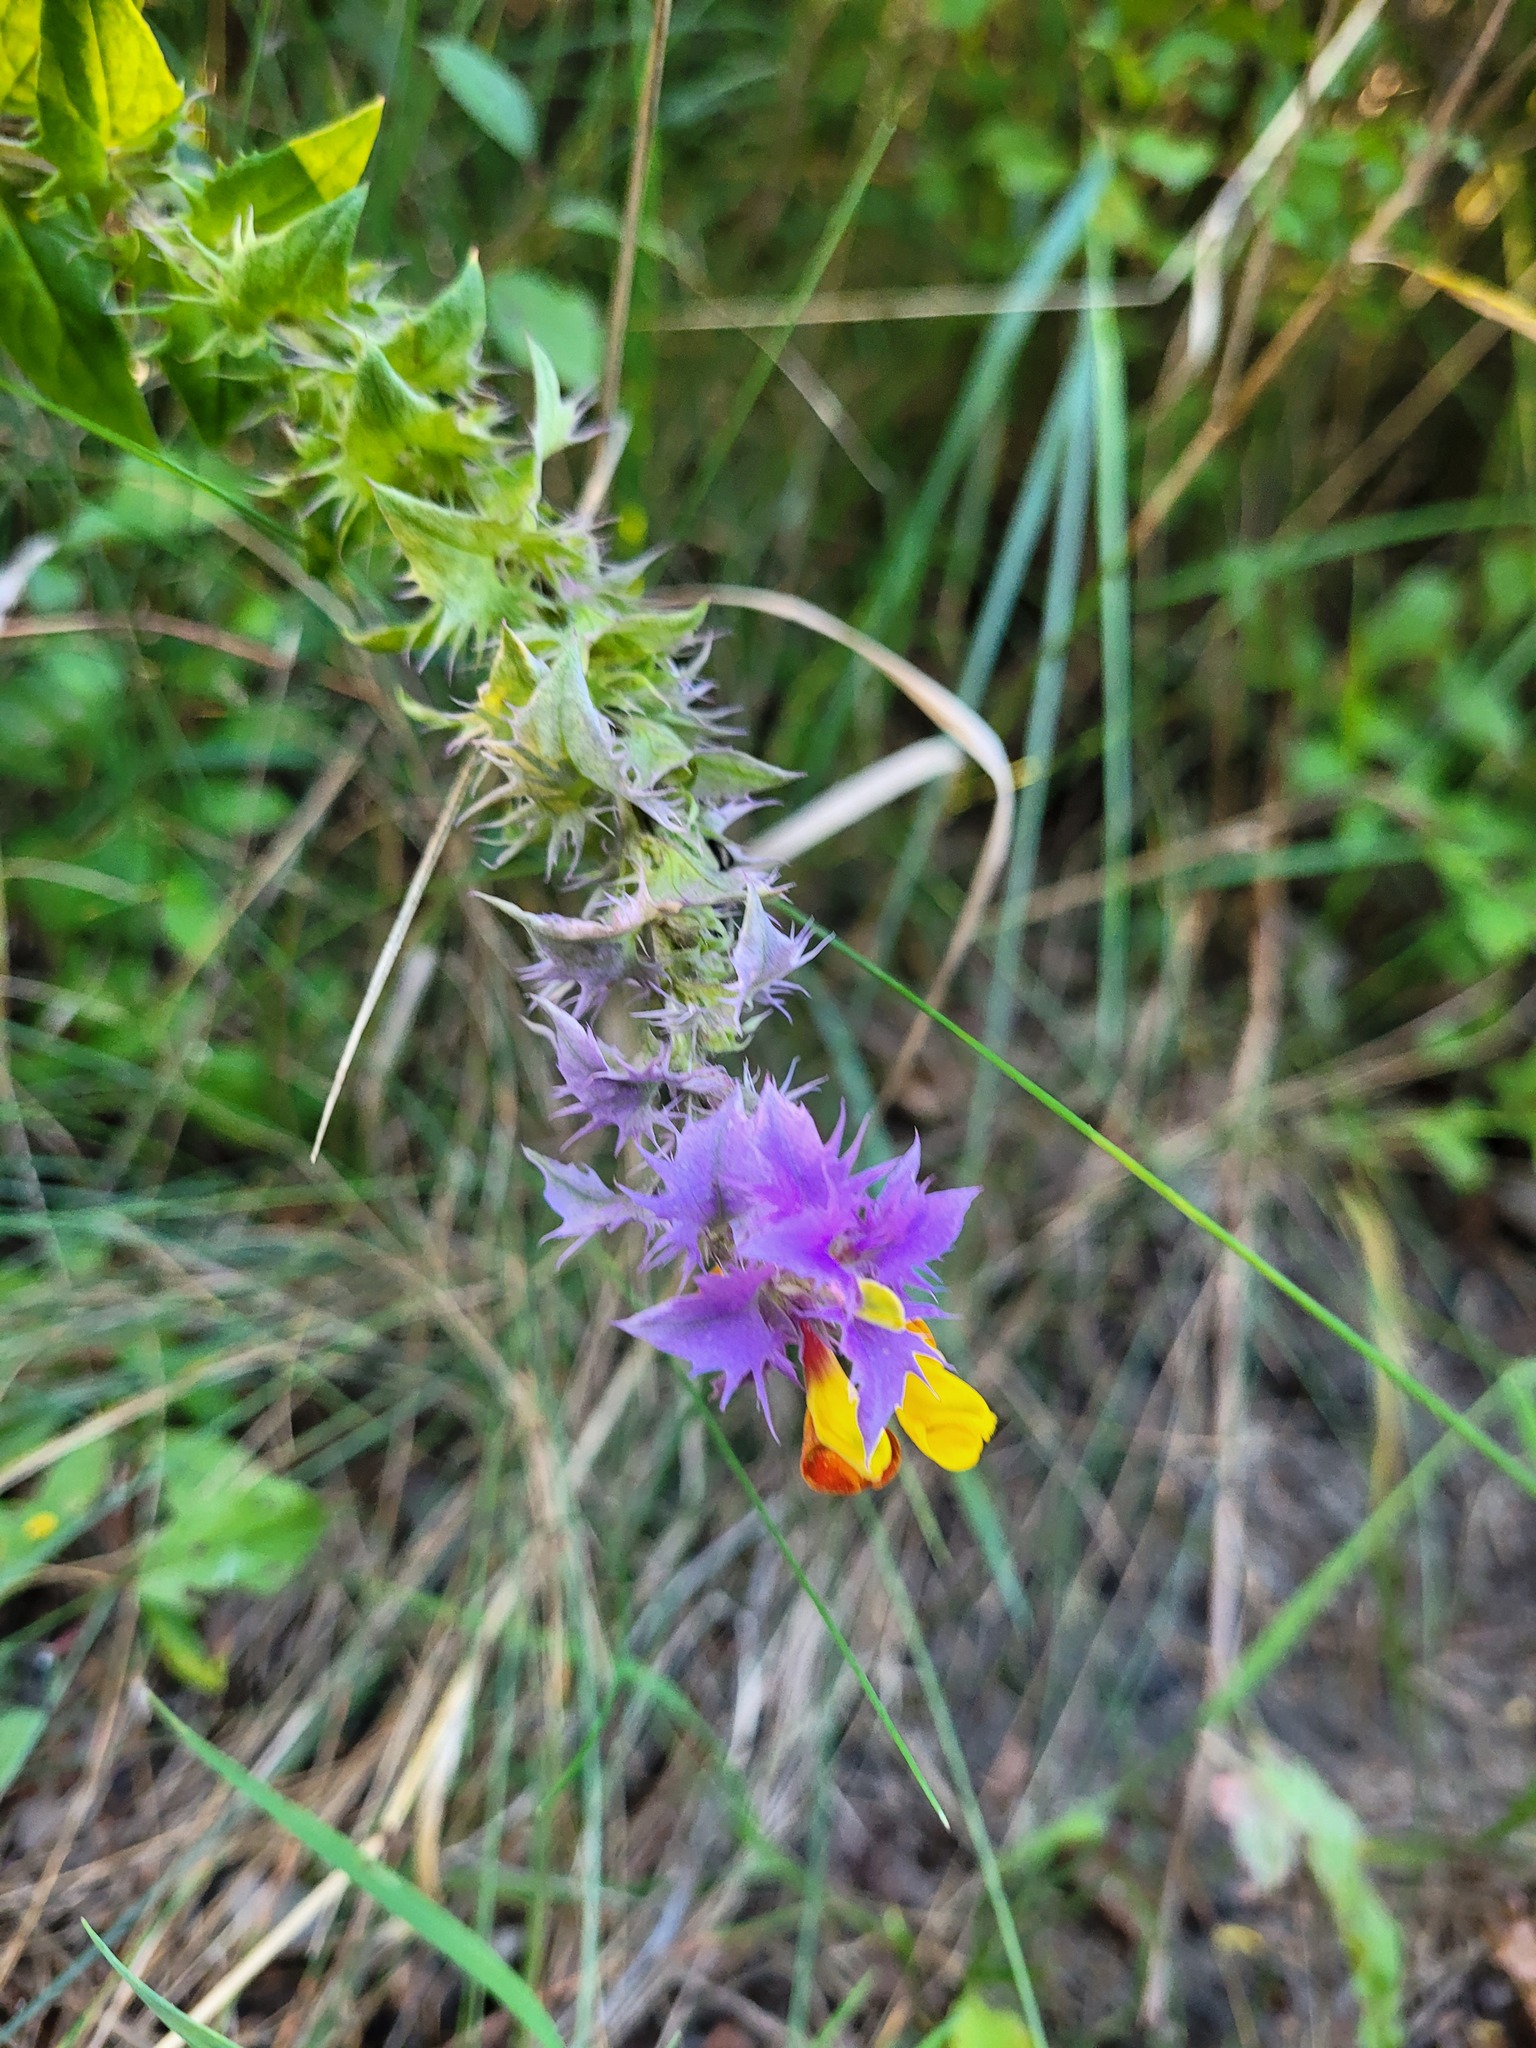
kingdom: Plantae
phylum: Tracheophyta
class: Magnoliopsida
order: Lamiales
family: Orobanchaceae
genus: Melampyrum
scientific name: Melampyrum nemorosum
